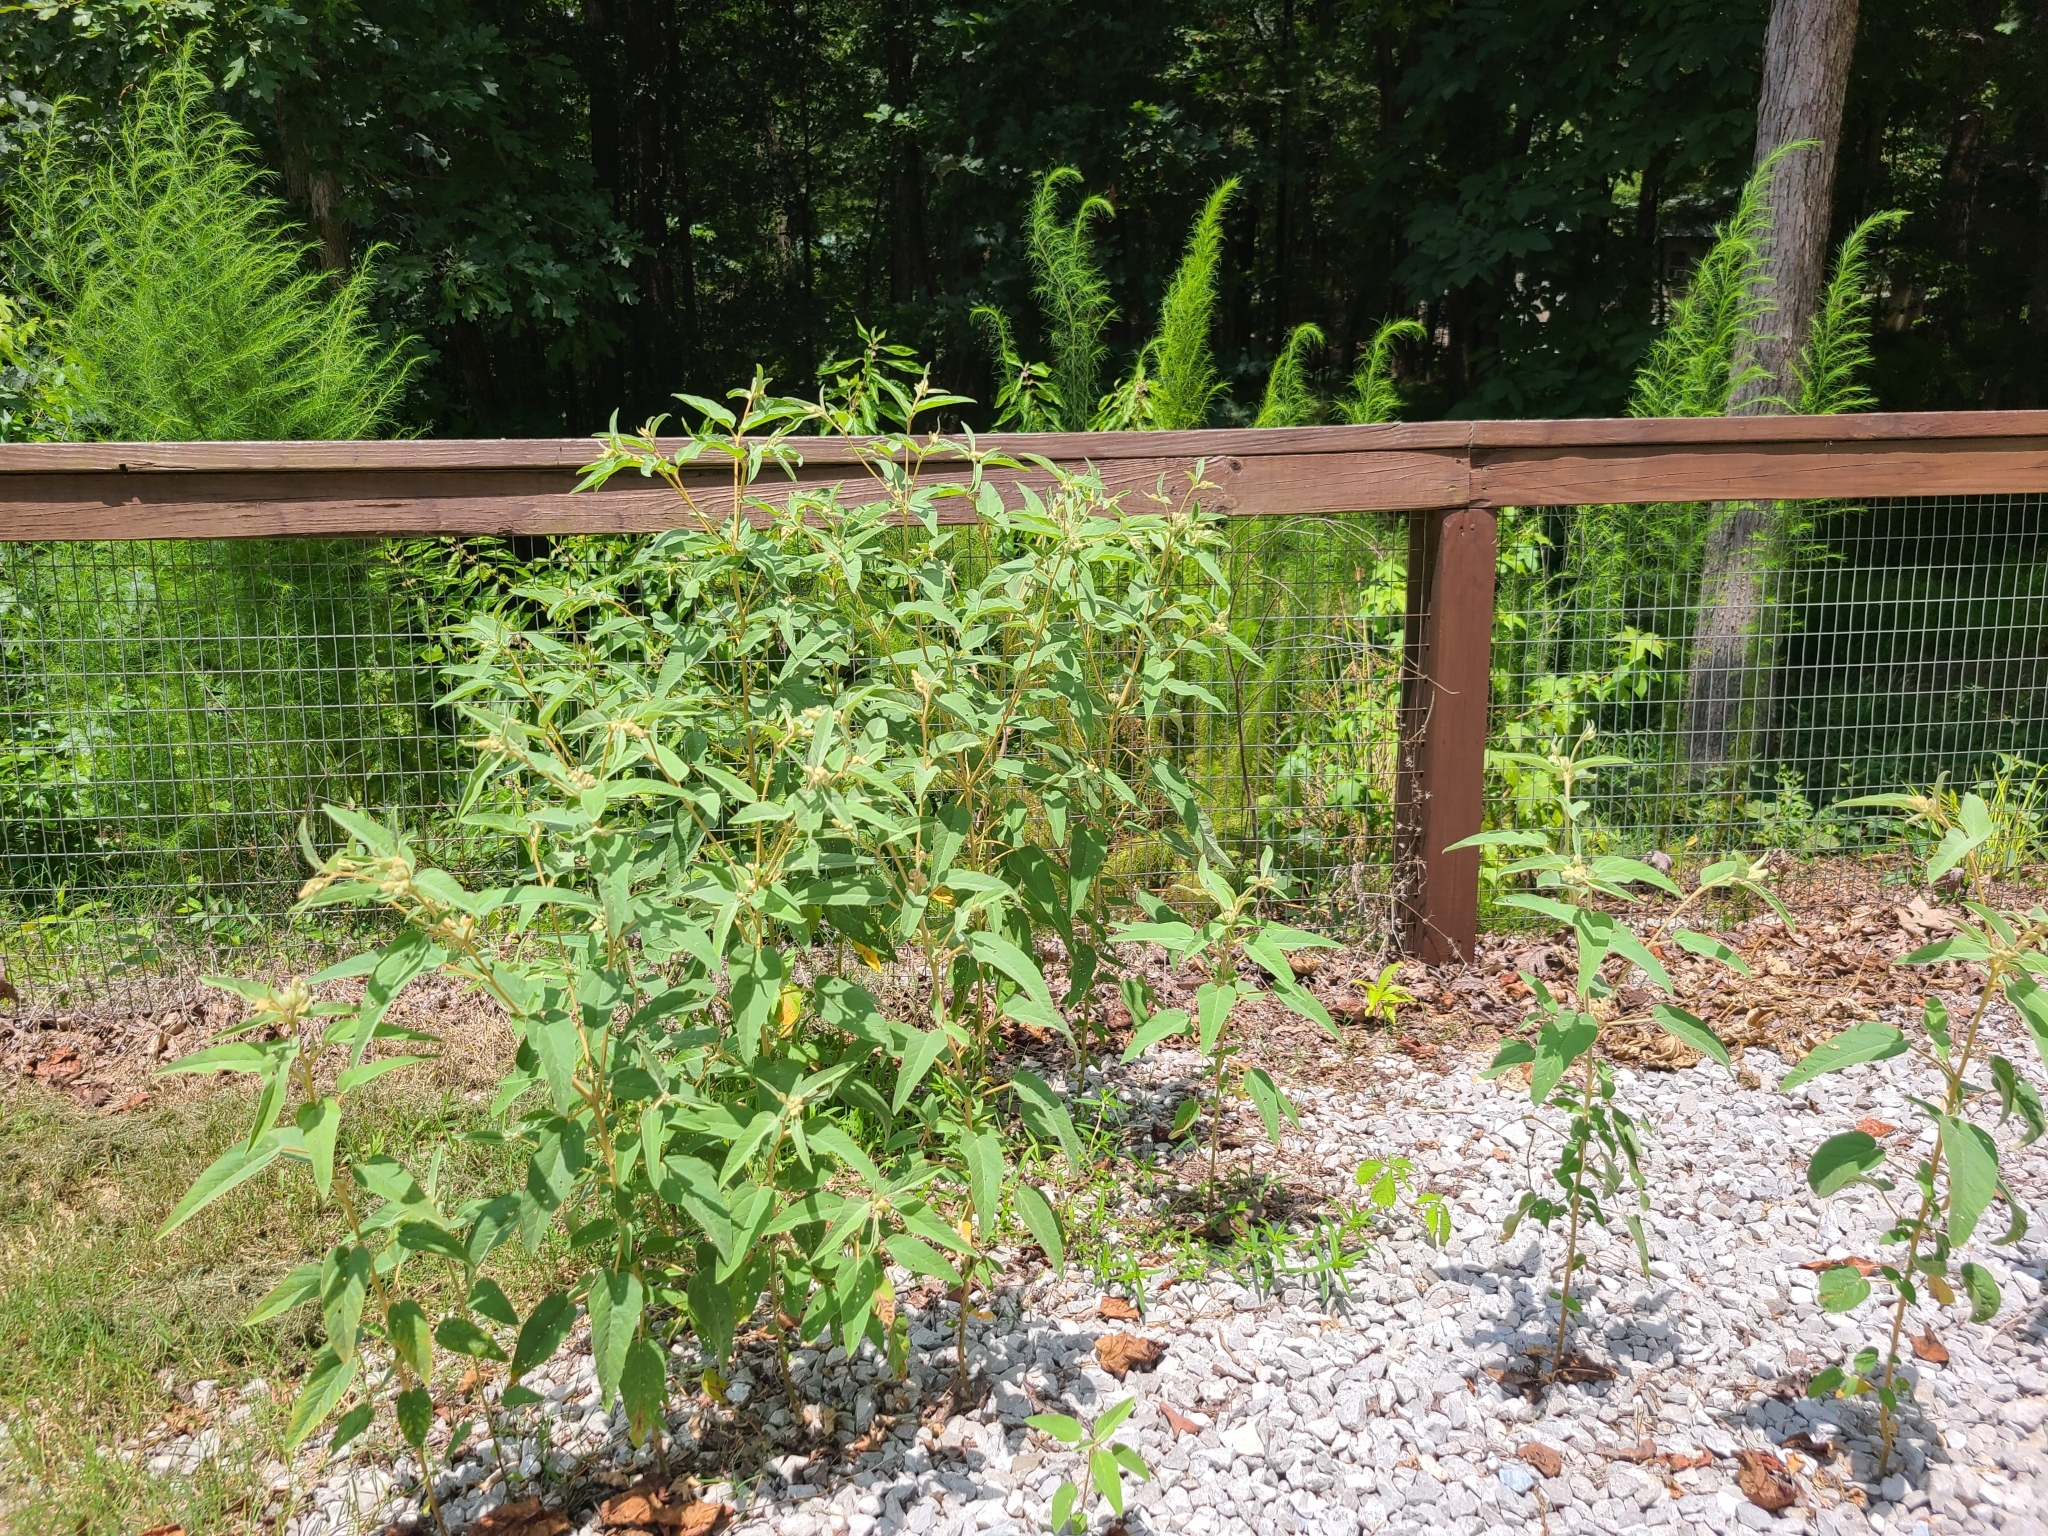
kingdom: Plantae
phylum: Tracheophyta
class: Magnoliopsida
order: Malpighiales
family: Euphorbiaceae
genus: Croton
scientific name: Croton lindheimeri
